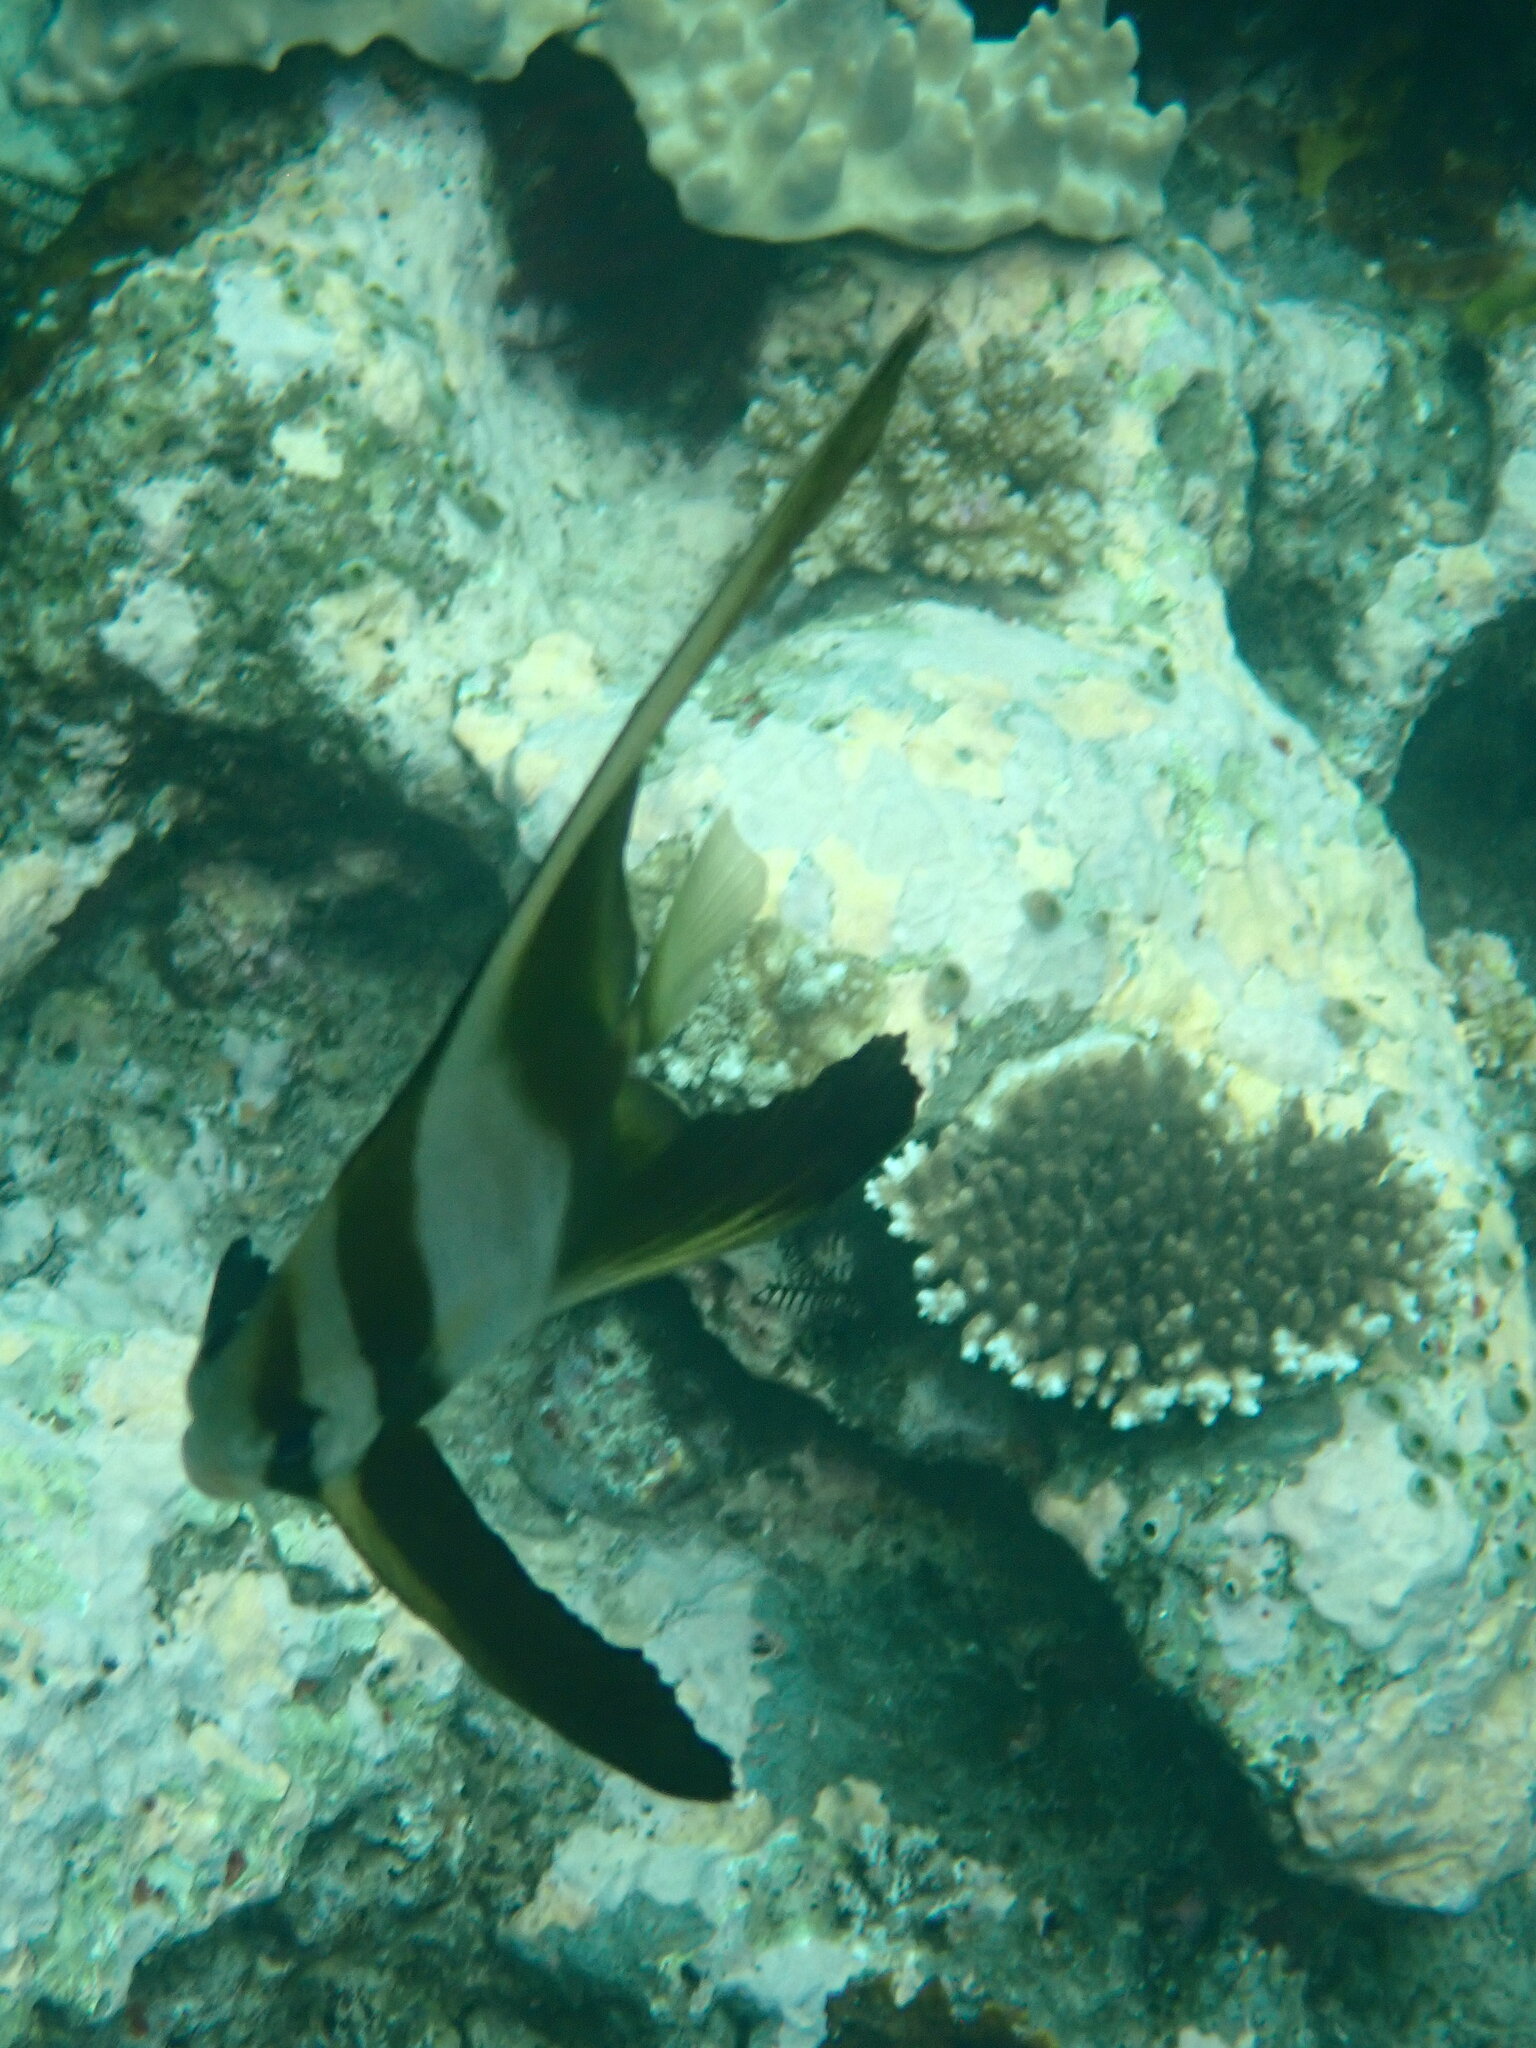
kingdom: Animalia
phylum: Chordata
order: Perciformes
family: Ephippidae
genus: Platax
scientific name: Platax teira
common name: Longfin baitfish
